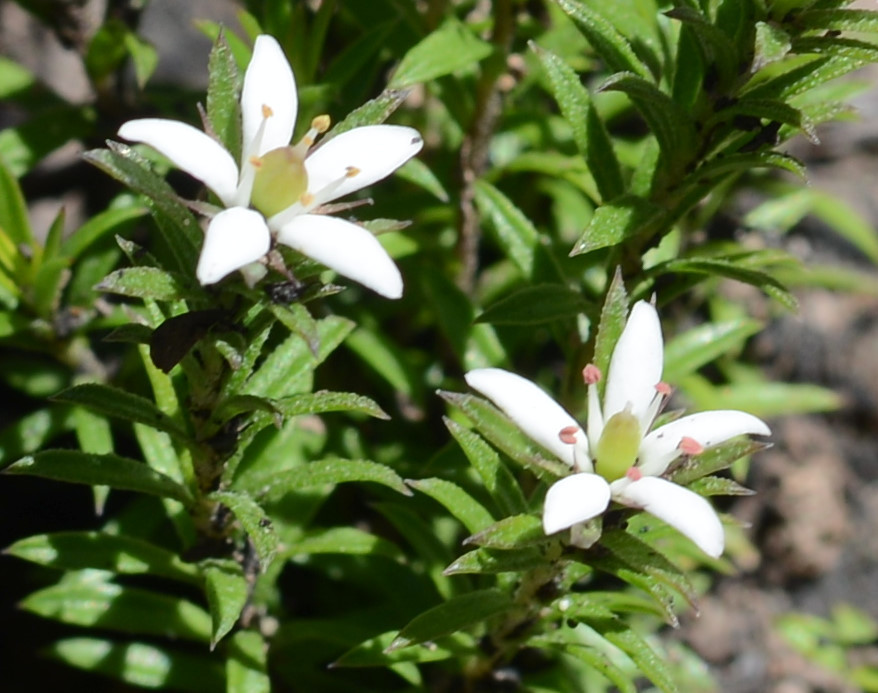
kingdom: Plantae
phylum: Tracheophyta
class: Magnoliopsida
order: Apiales
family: Pittosporaceae
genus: Rhytidosporum
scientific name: Rhytidosporum procumbens
